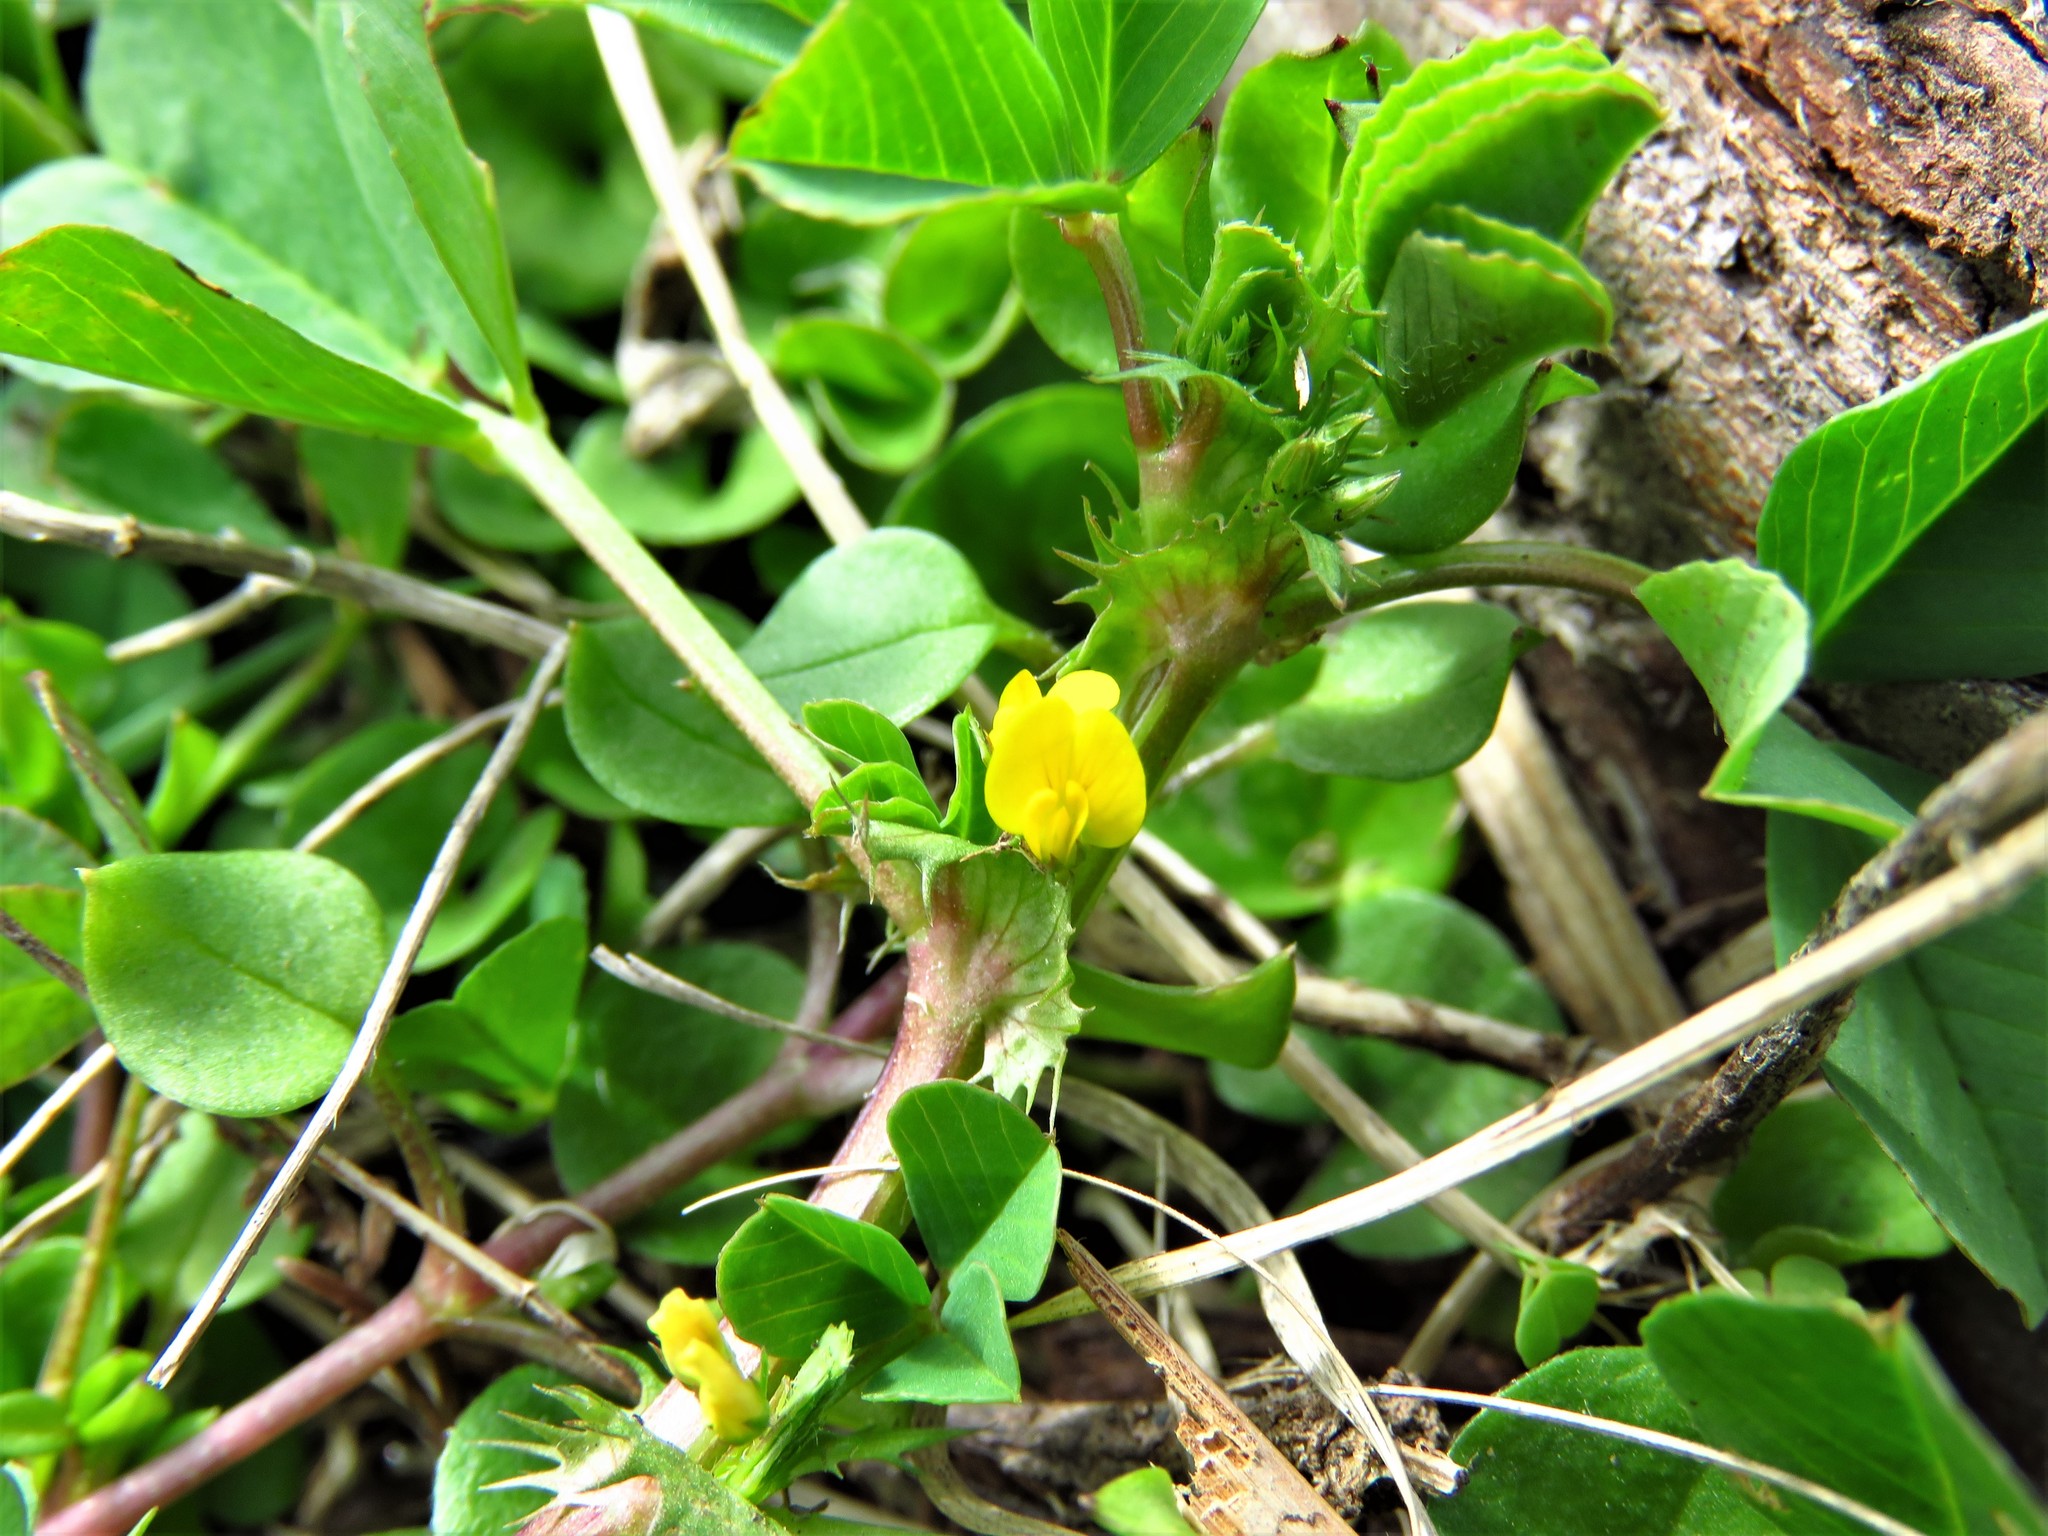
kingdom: Plantae
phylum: Tracheophyta
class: Magnoliopsida
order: Fabales
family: Fabaceae
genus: Medicago
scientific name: Medicago polymorpha
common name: Burclover
